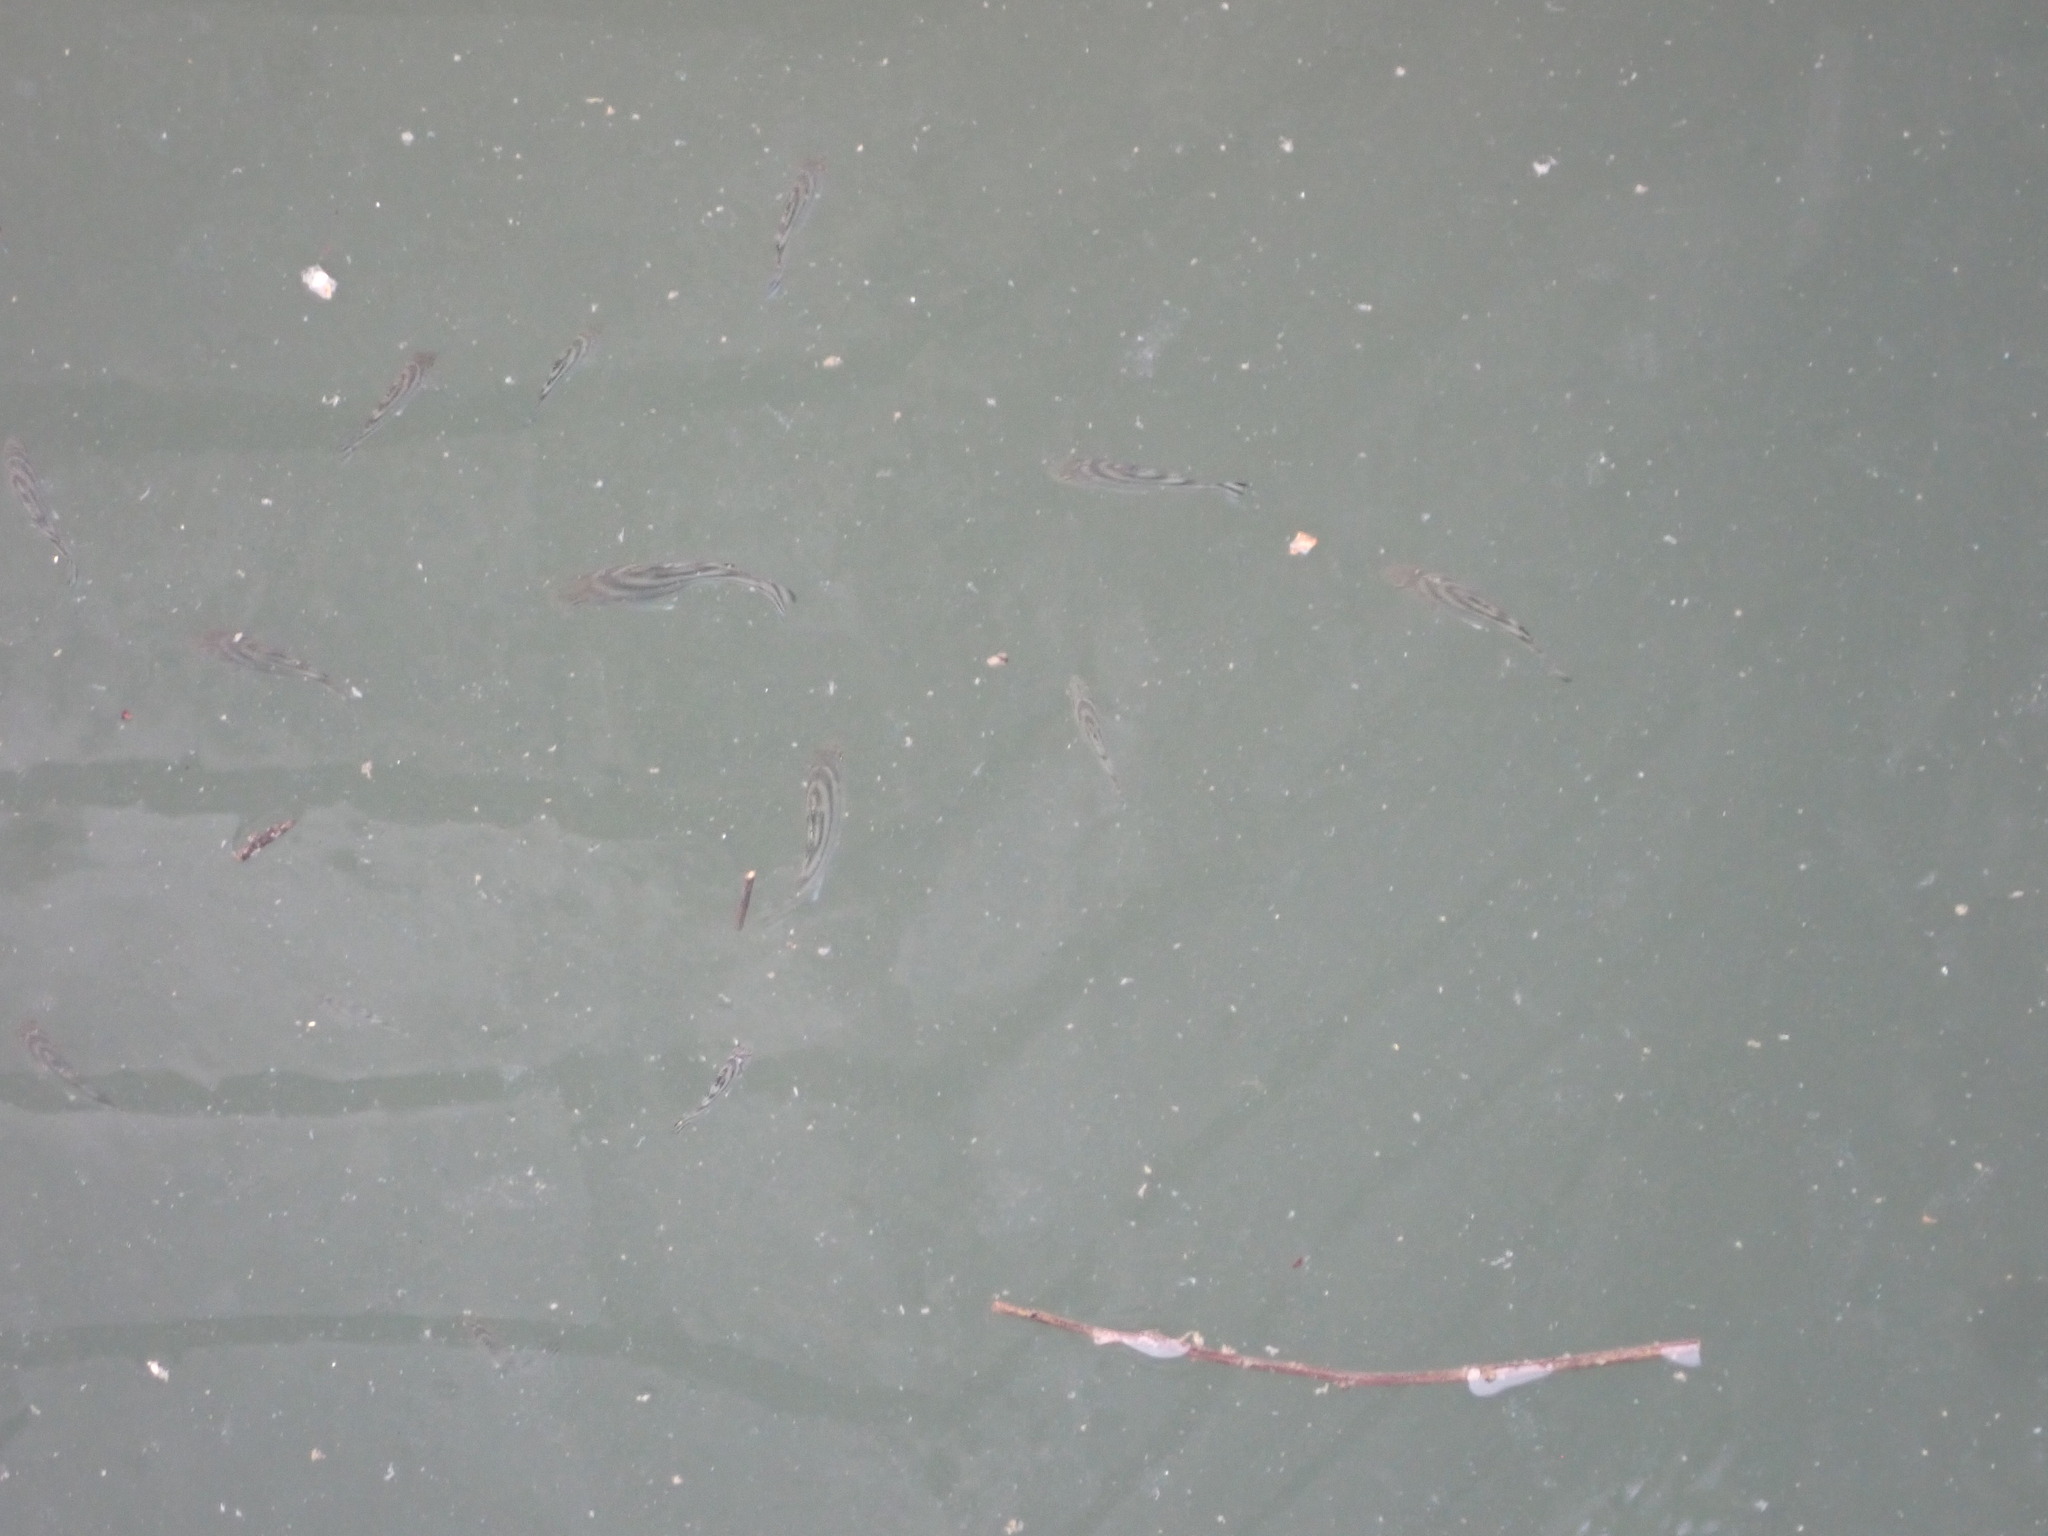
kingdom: Animalia
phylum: Chordata
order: Perciformes
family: Terapontidae
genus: Terapon
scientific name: Terapon jarbua
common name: Jarbua terapon
